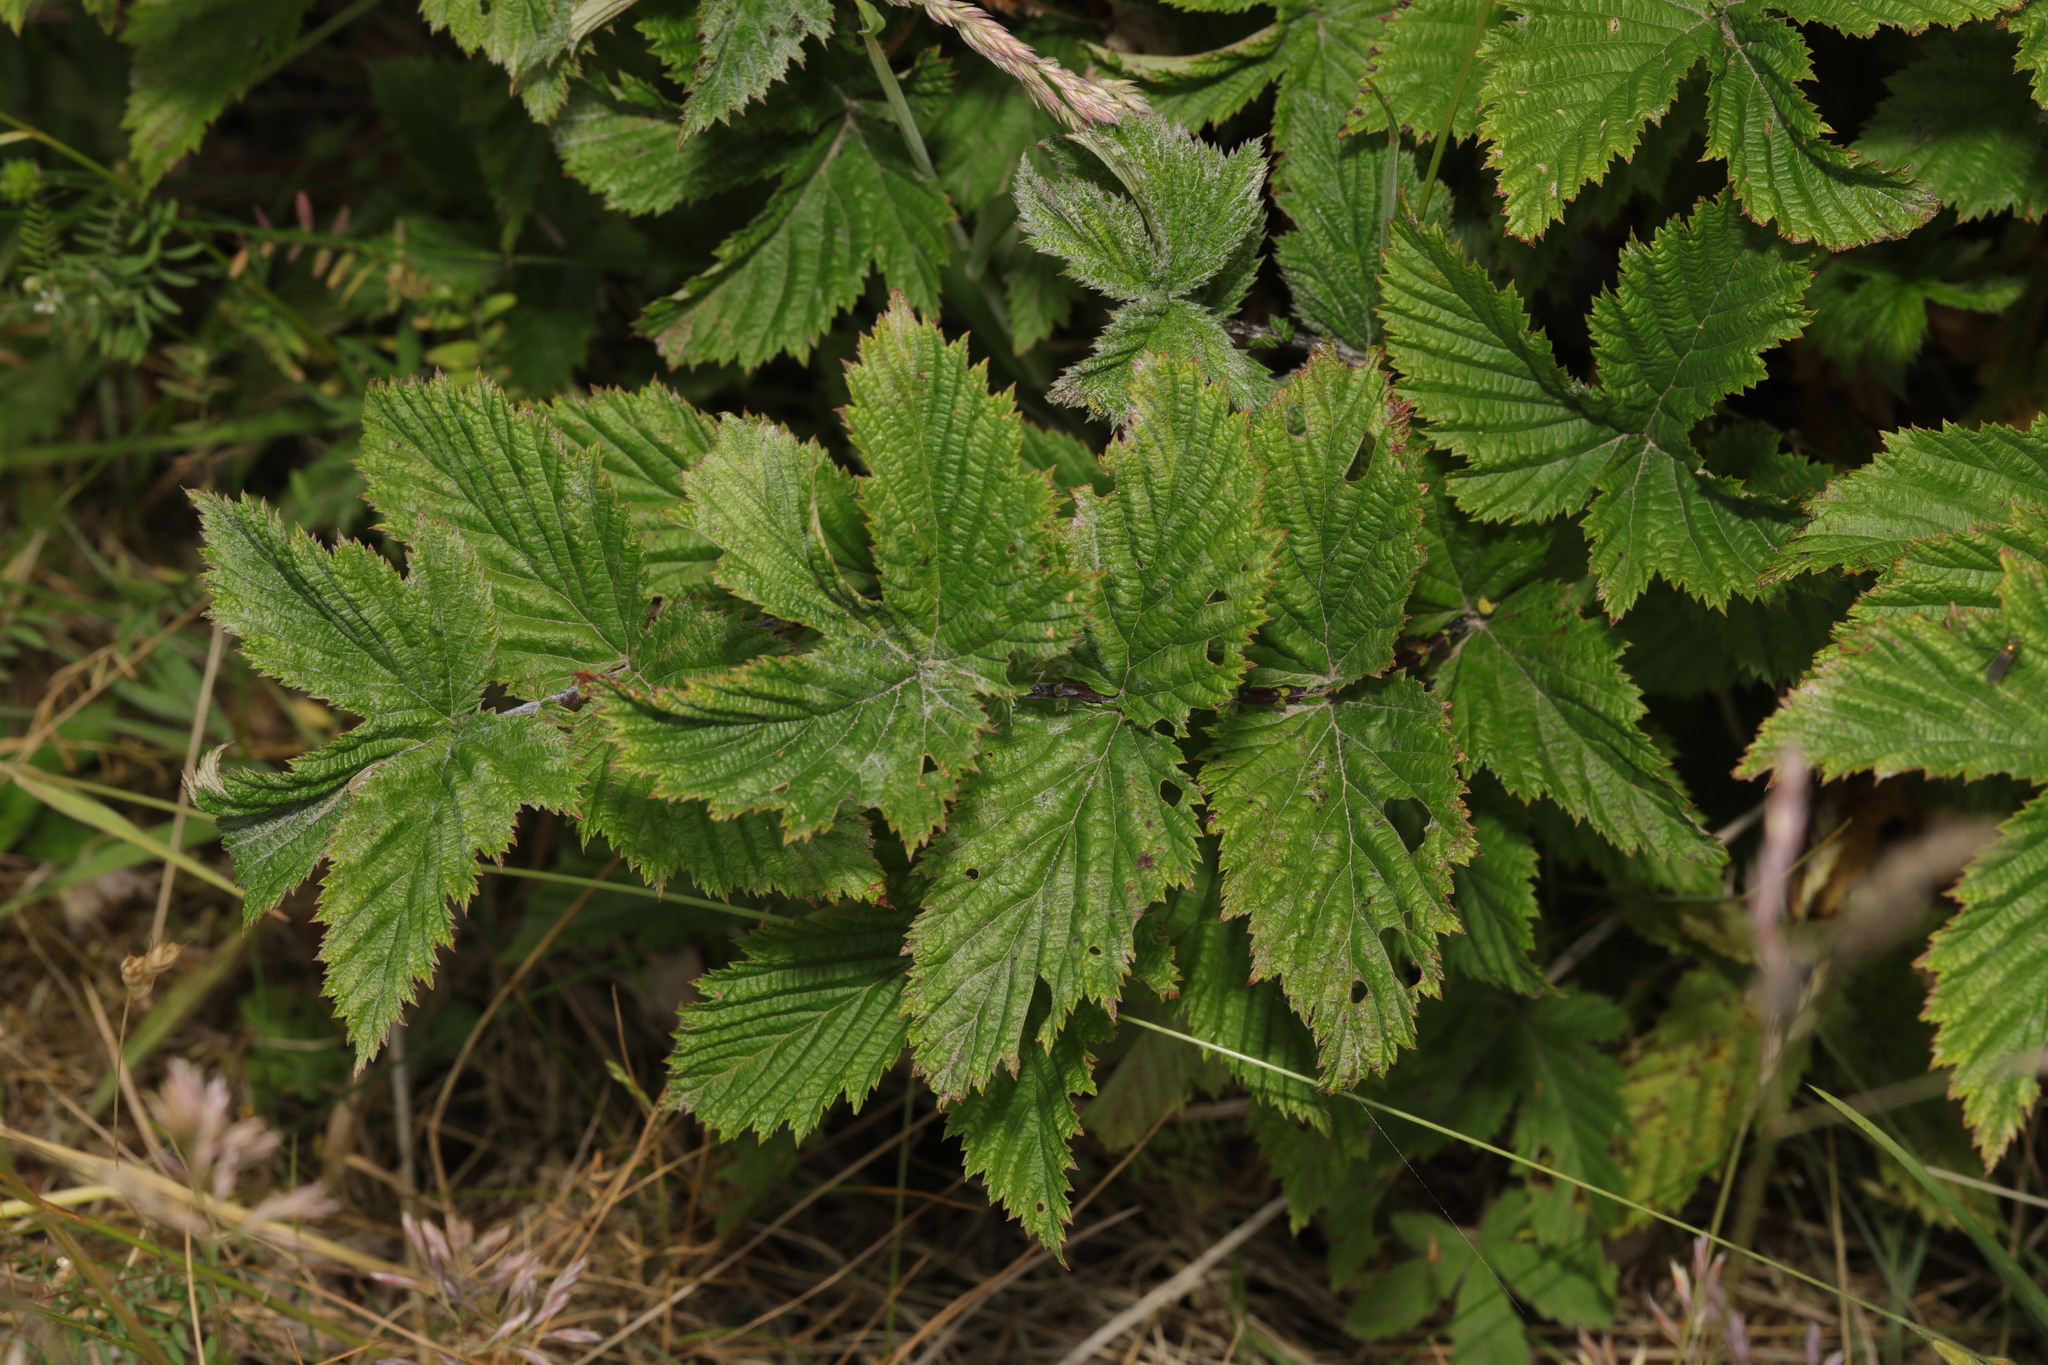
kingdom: Plantae
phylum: Tracheophyta
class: Magnoliopsida
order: Rosales
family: Rosaceae
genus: Filipendula
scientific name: Filipendula ulmaria
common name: Meadowsweet
